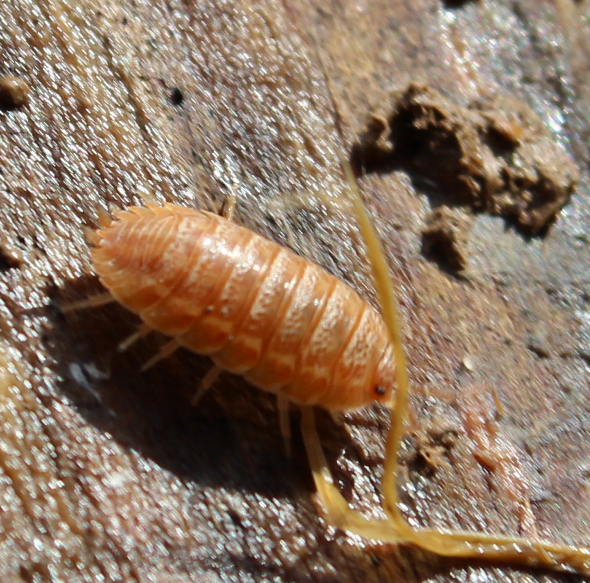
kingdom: Animalia
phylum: Arthropoda
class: Malacostraca
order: Isopoda
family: Trachelipodidae
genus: Trachelipus
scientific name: Trachelipus rathkii
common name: Isopod
